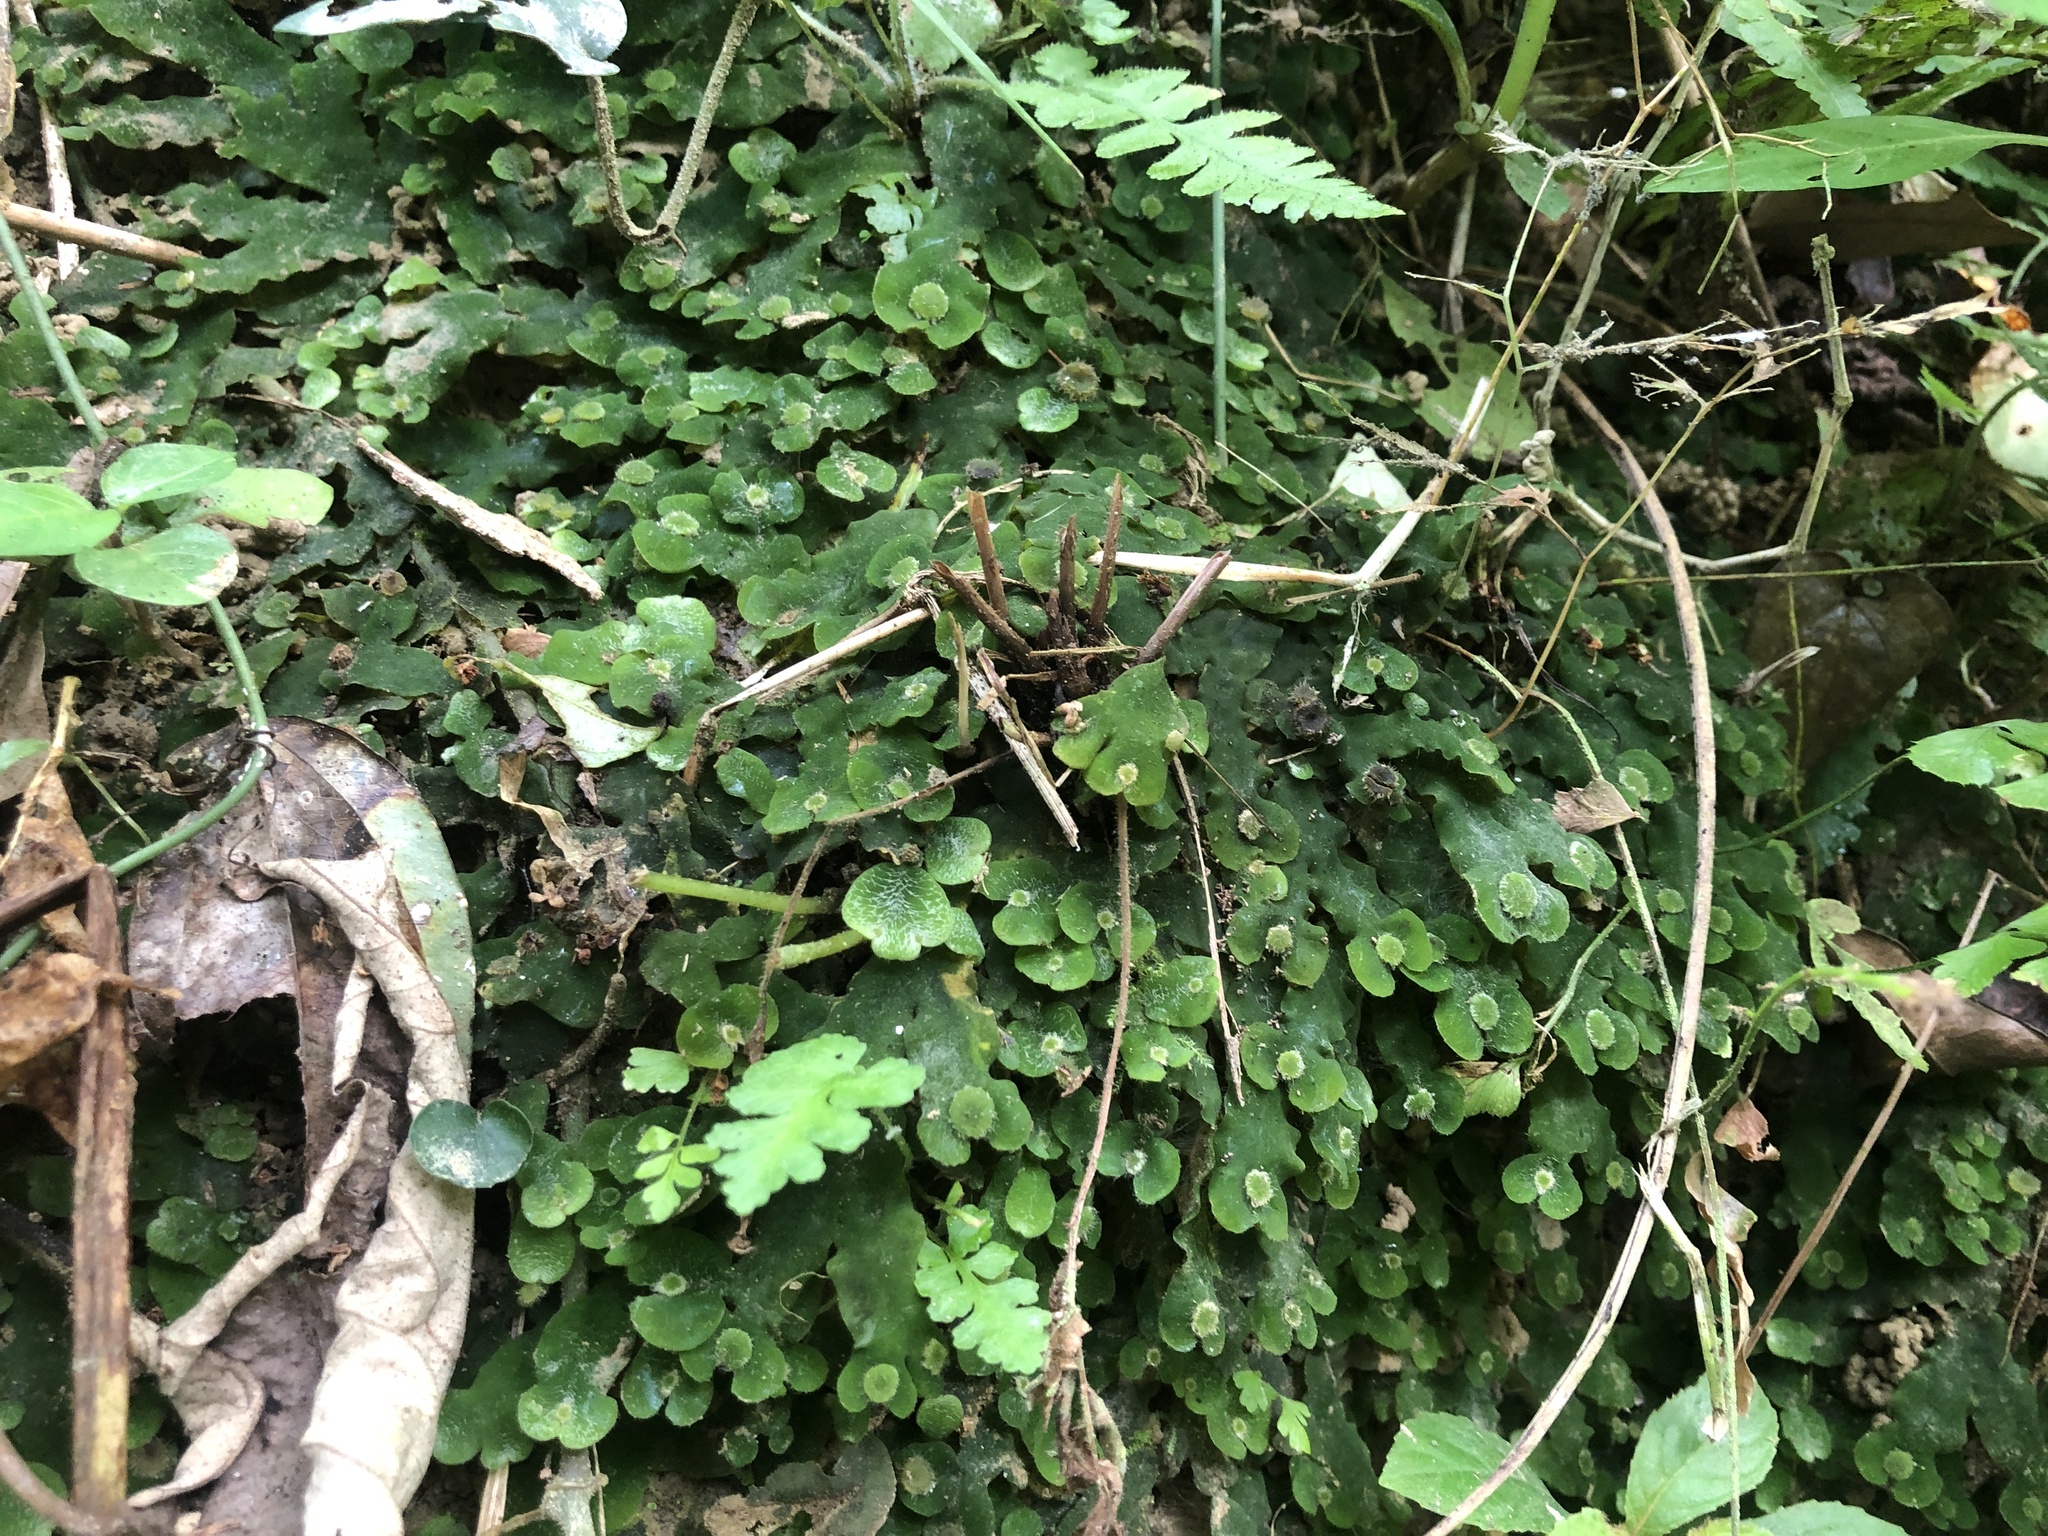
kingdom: Plantae
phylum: Marchantiophyta
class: Marchantiopsida
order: Marchantiales
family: Dumortieraceae
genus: Dumortiera
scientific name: Dumortiera hirsuta
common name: Dumortier's liverwort
